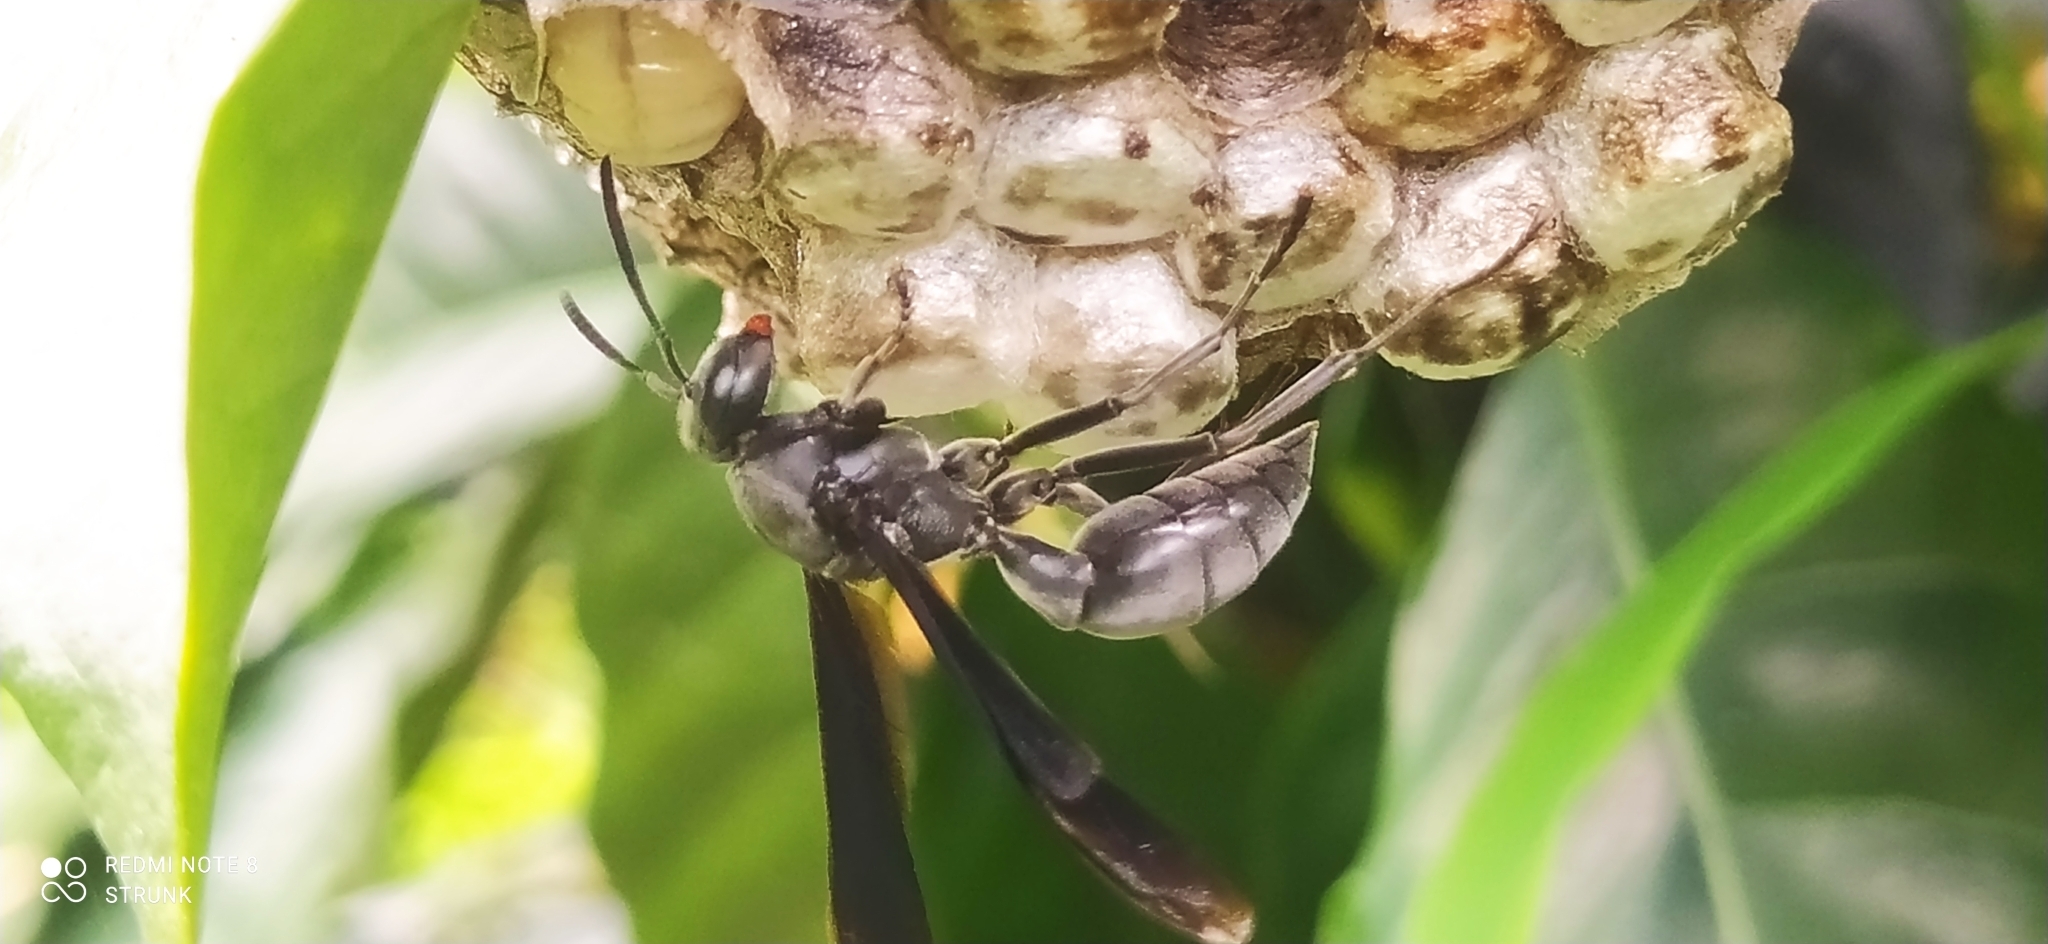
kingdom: Animalia
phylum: Arthropoda
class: Insecta
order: Hymenoptera
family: Eumenidae
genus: Polistes
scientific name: Polistes aterrimus
